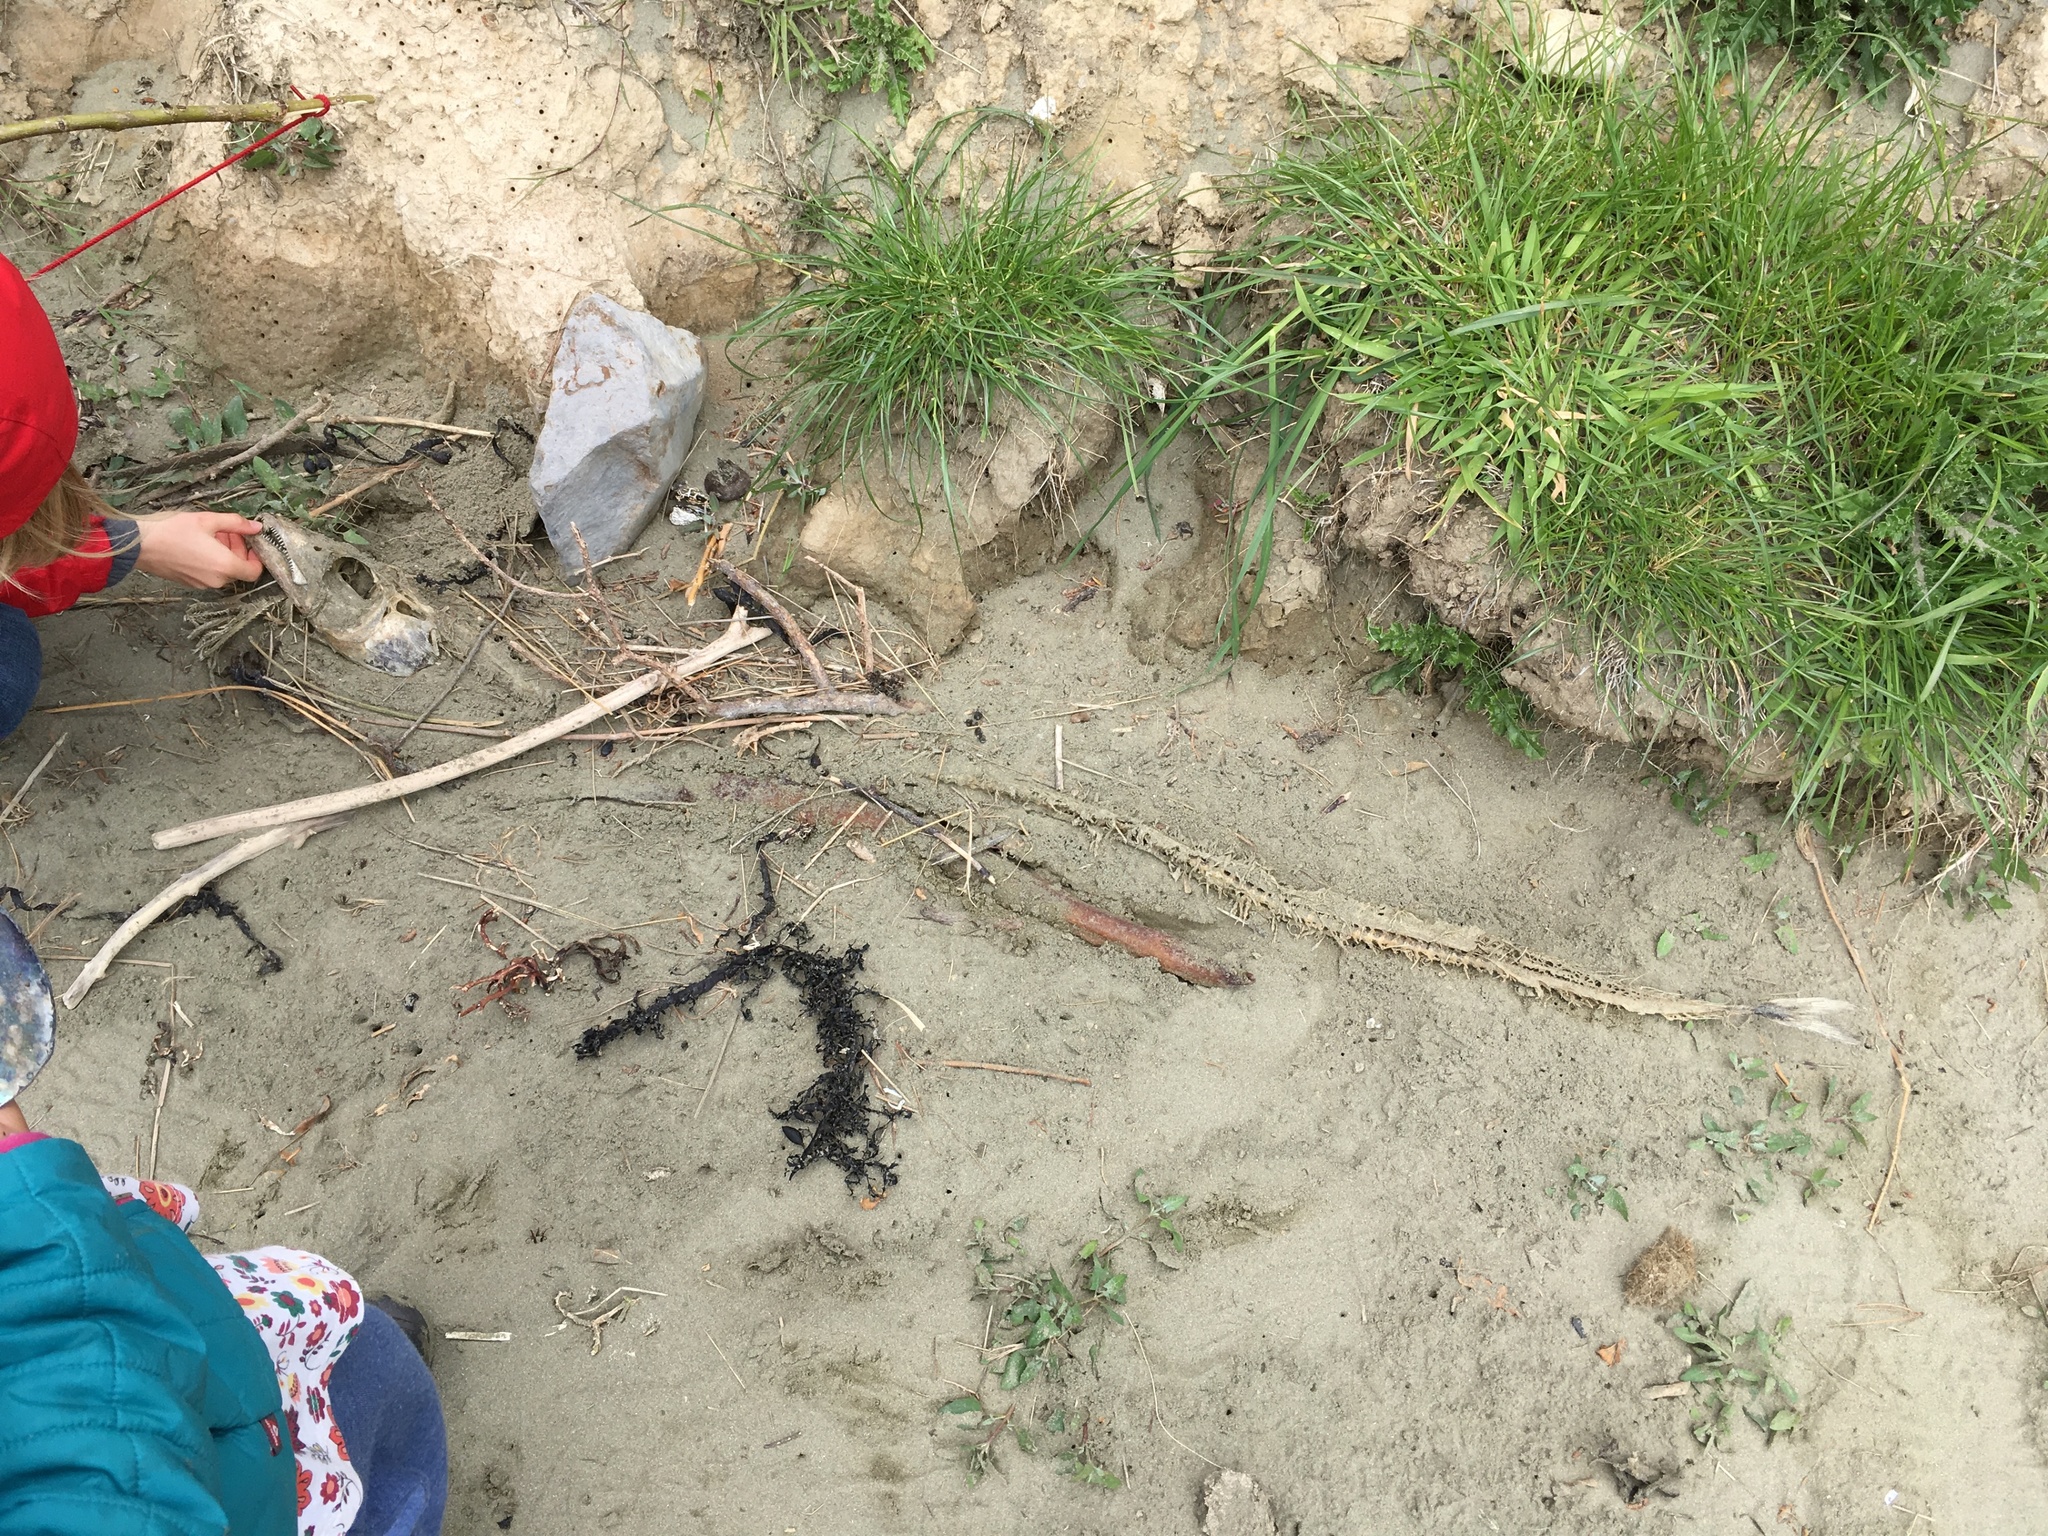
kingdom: Animalia
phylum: Chordata
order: Perciformes
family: Trichiuridae
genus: Lepidopus
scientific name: Lepidopus caudatus
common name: Silver scabbardfish
